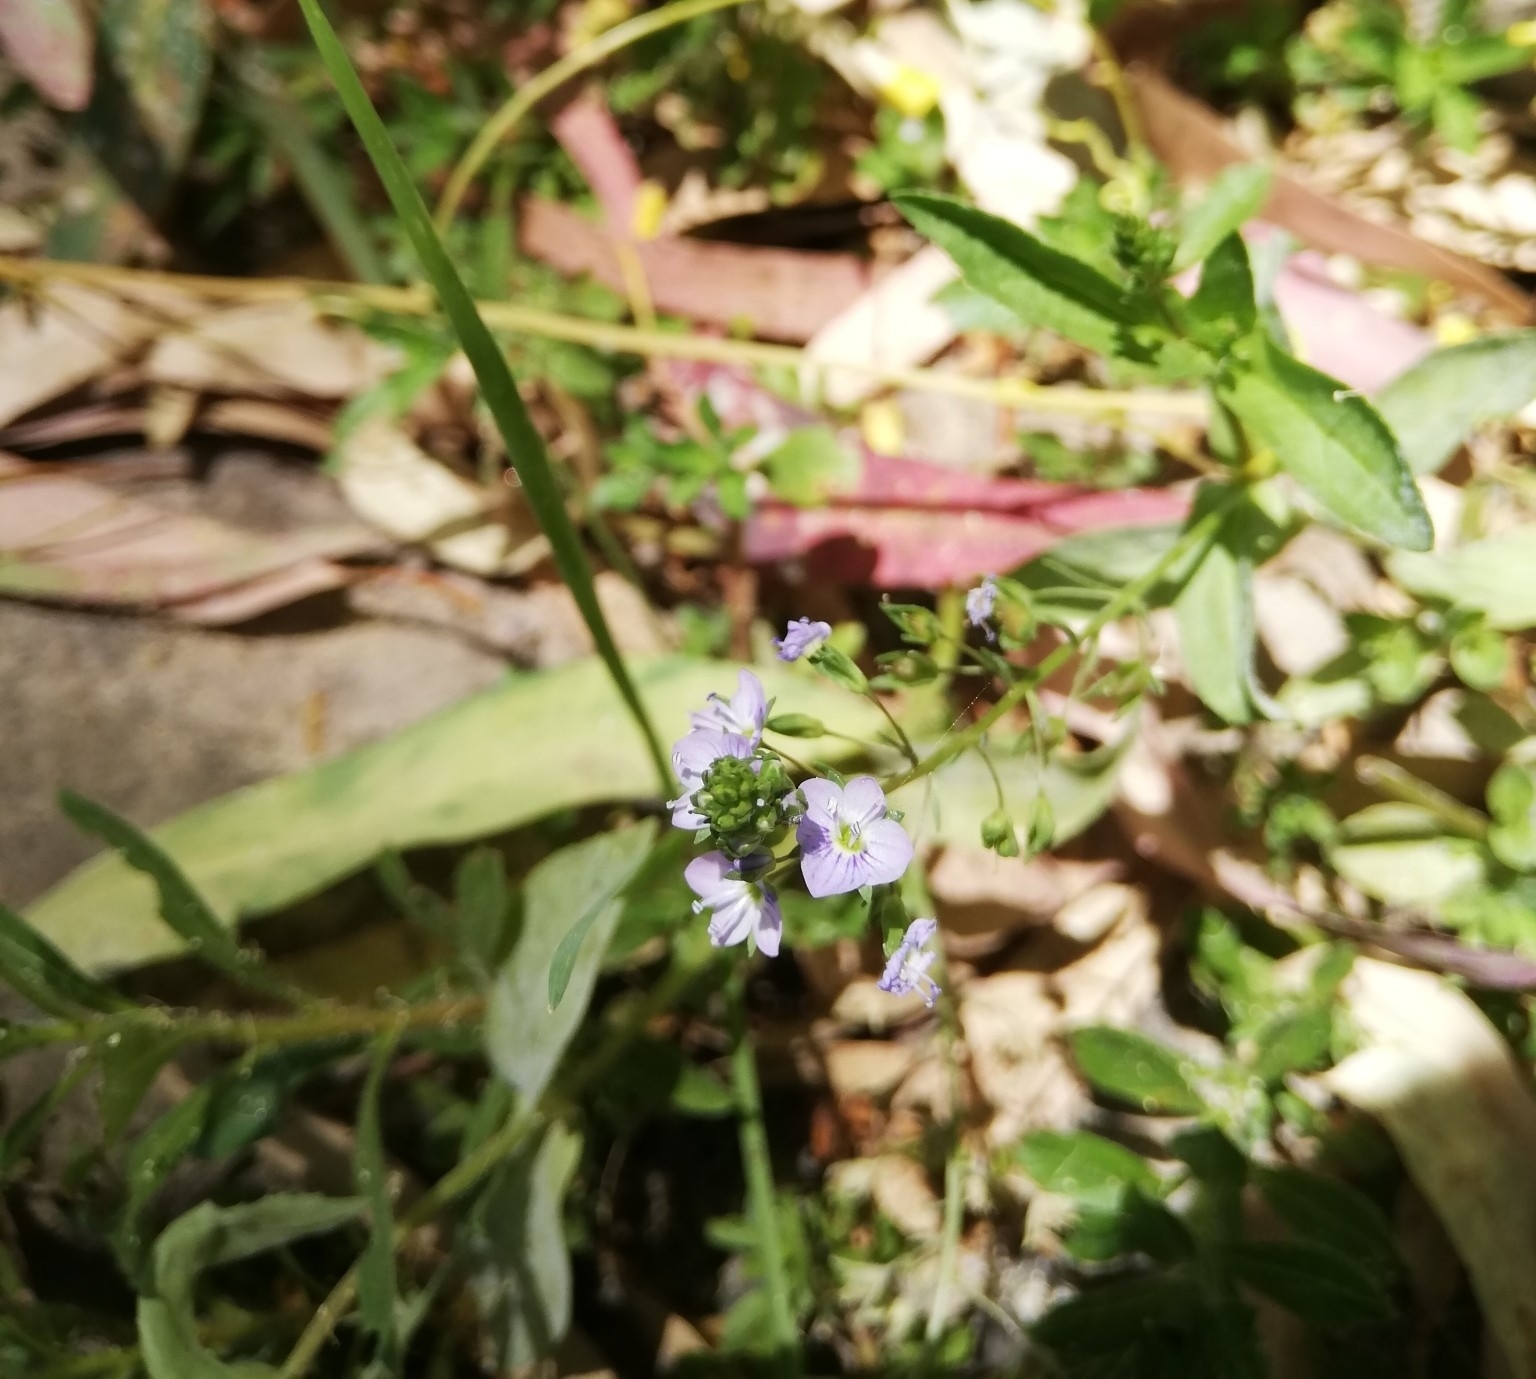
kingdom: Plantae
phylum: Tracheophyta
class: Magnoliopsida
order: Lamiales
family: Plantaginaceae
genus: Veronica
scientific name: Veronica anagallis-aquatica
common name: Water speedwell
